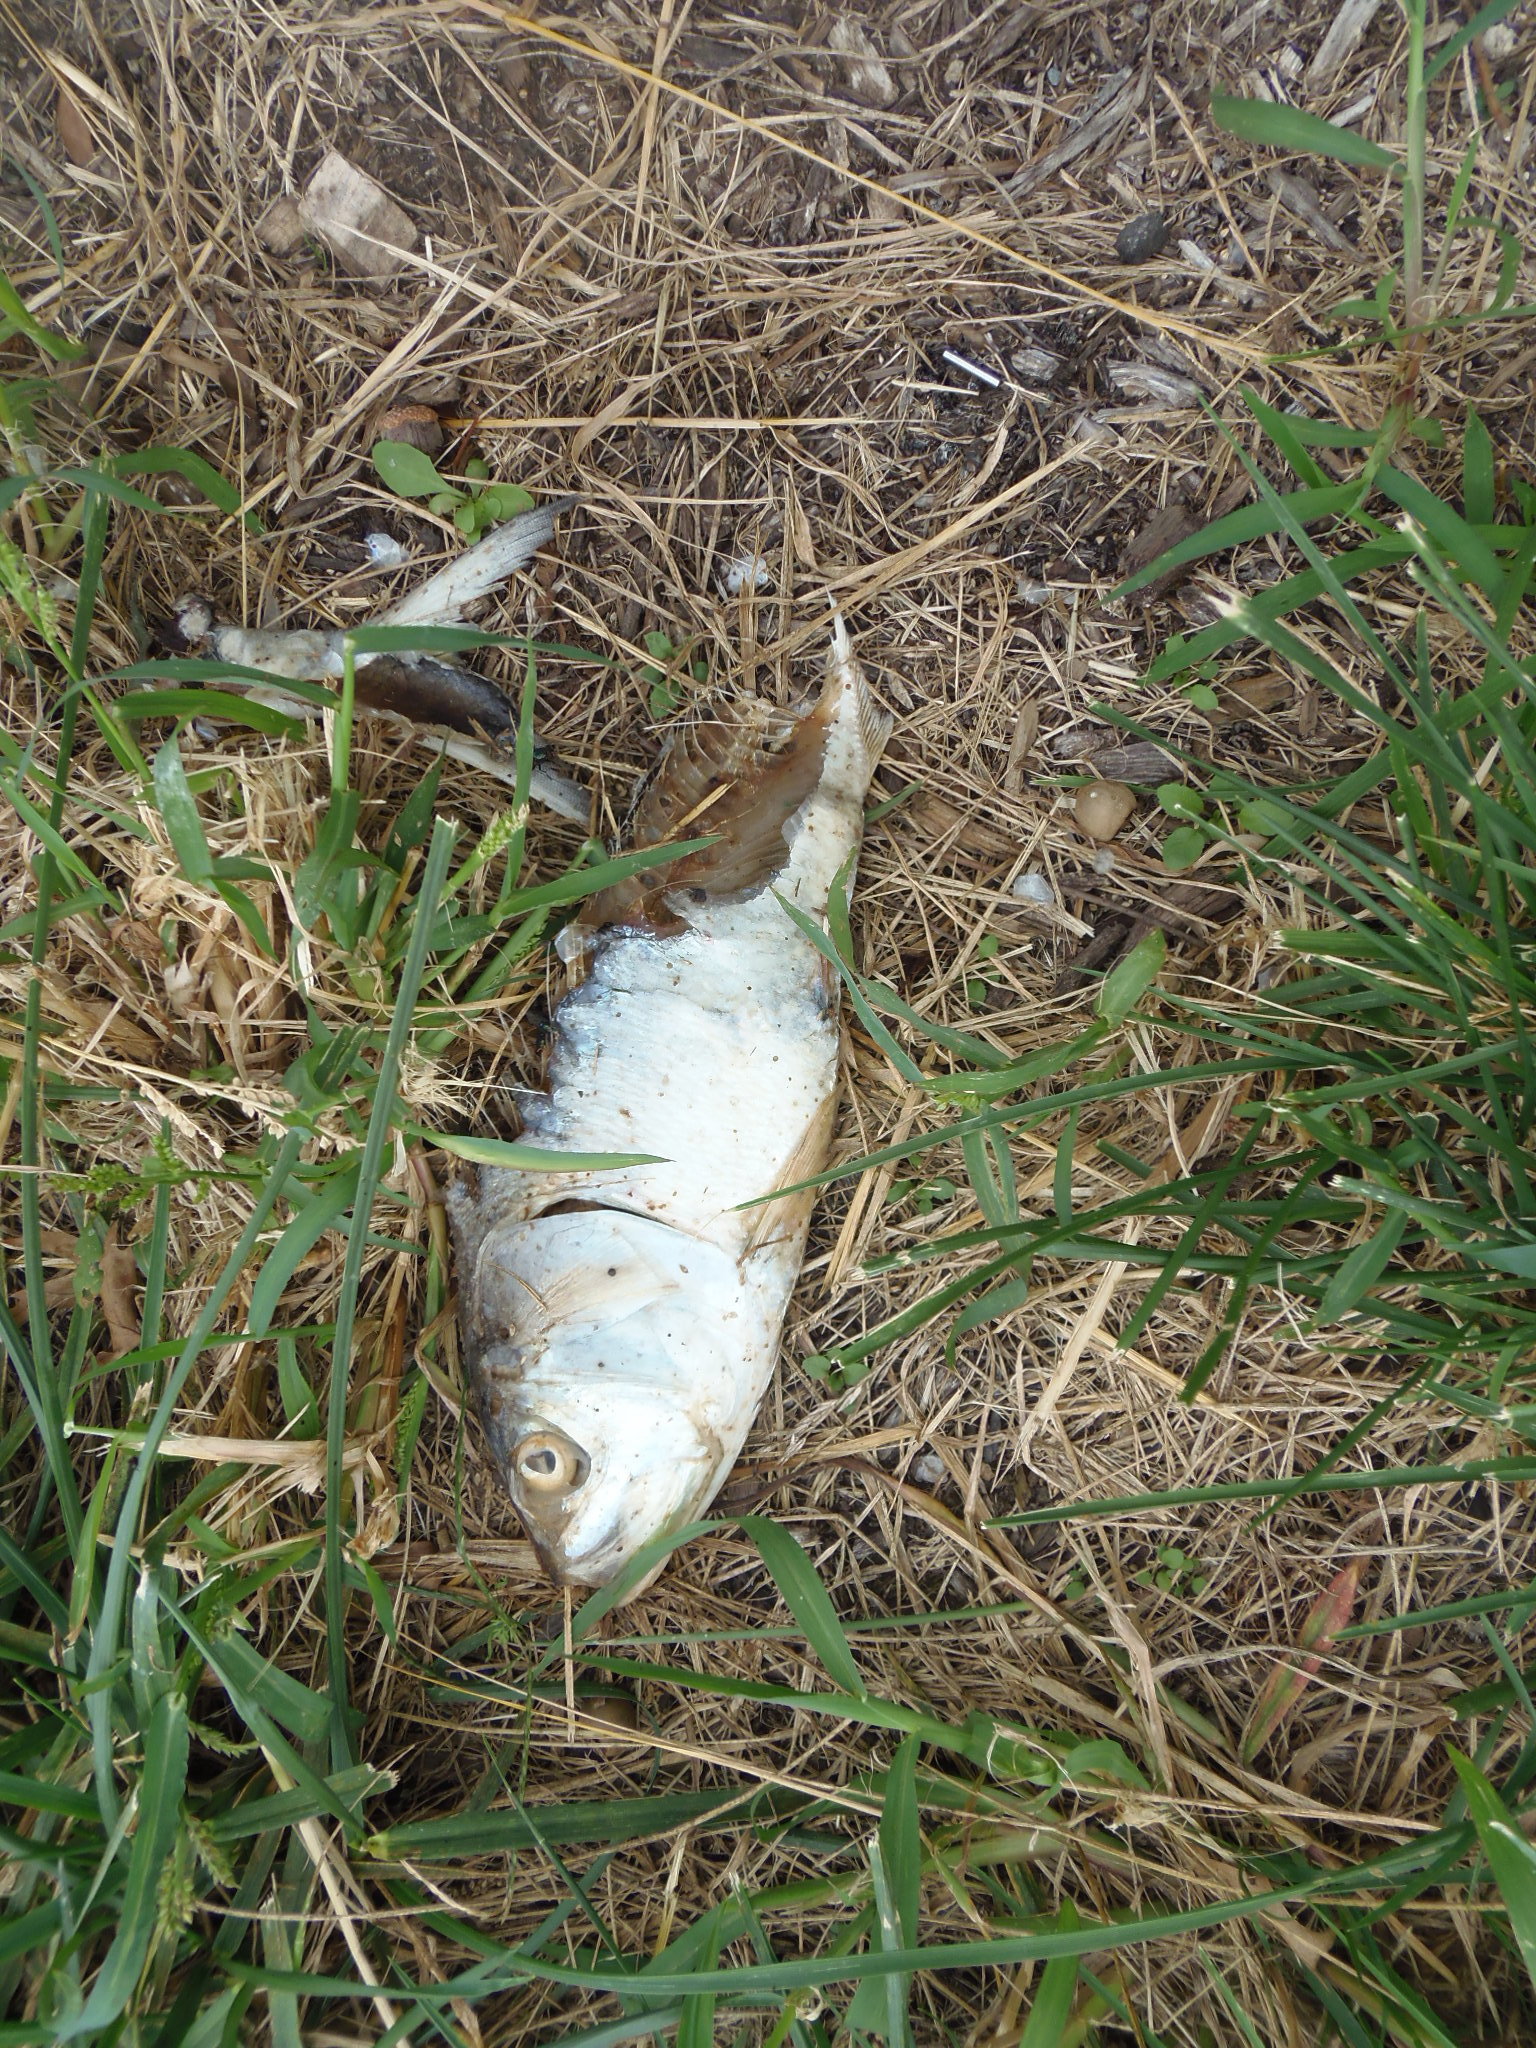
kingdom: Animalia
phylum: Chordata
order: Clupeiformes
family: Clupeidae
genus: Brevoortia
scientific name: Brevoortia tyrannus
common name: Atlantic menhaden
